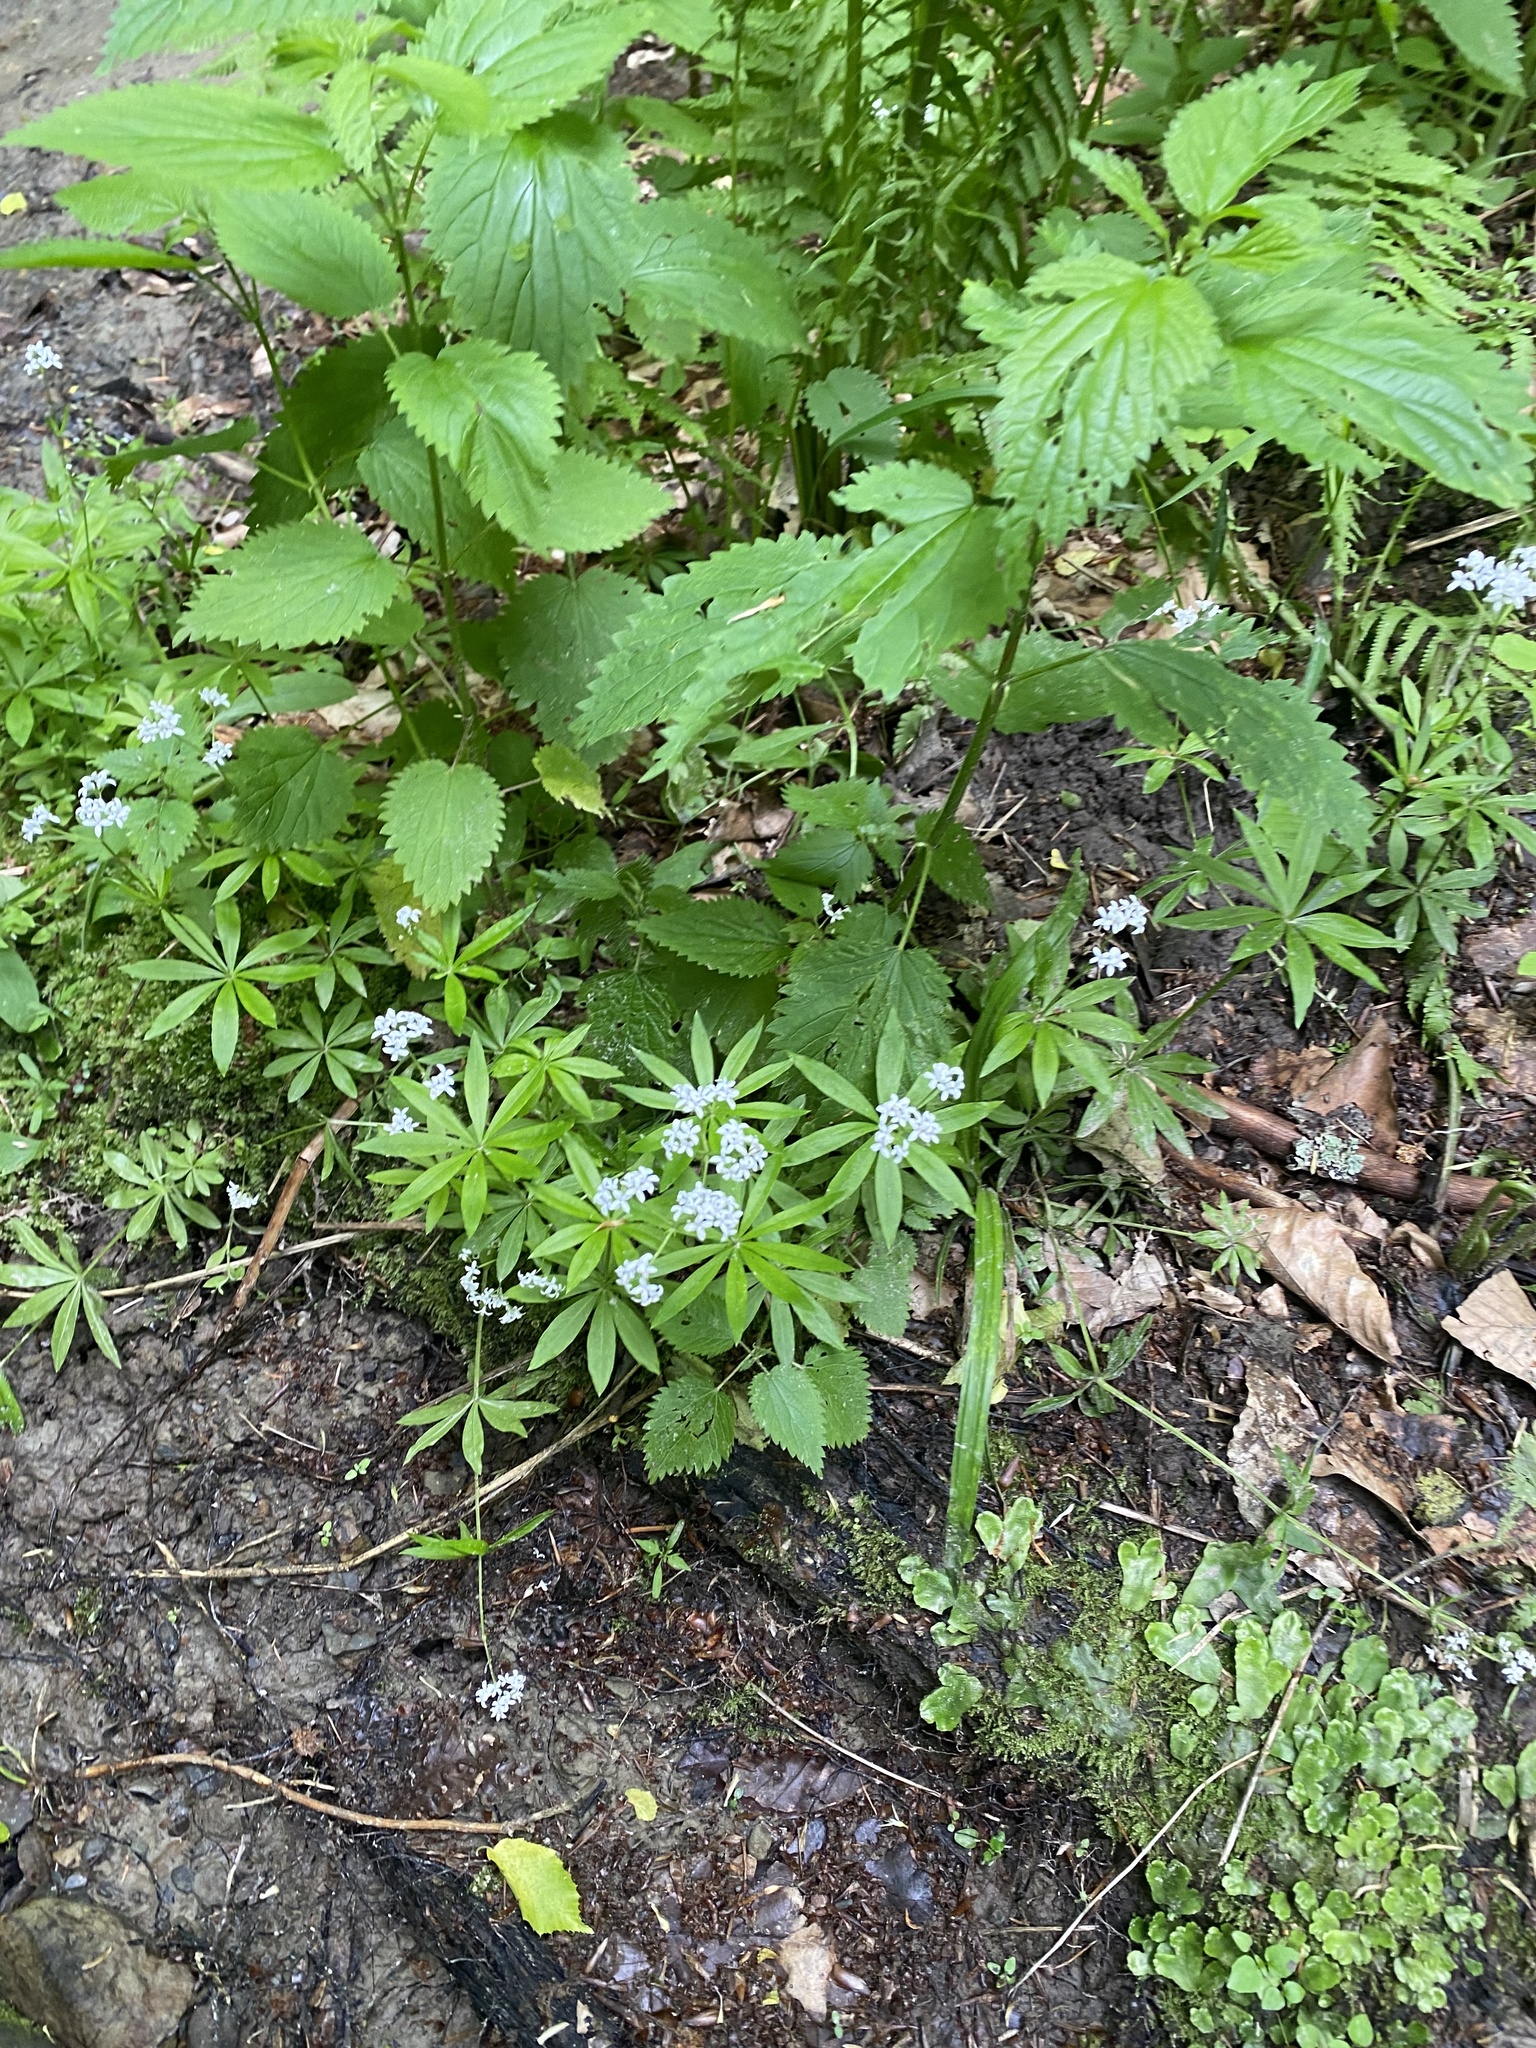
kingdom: Plantae
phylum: Tracheophyta
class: Magnoliopsida
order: Gentianales
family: Rubiaceae
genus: Galium
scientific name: Galium odoratum
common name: Sweet woodruff
